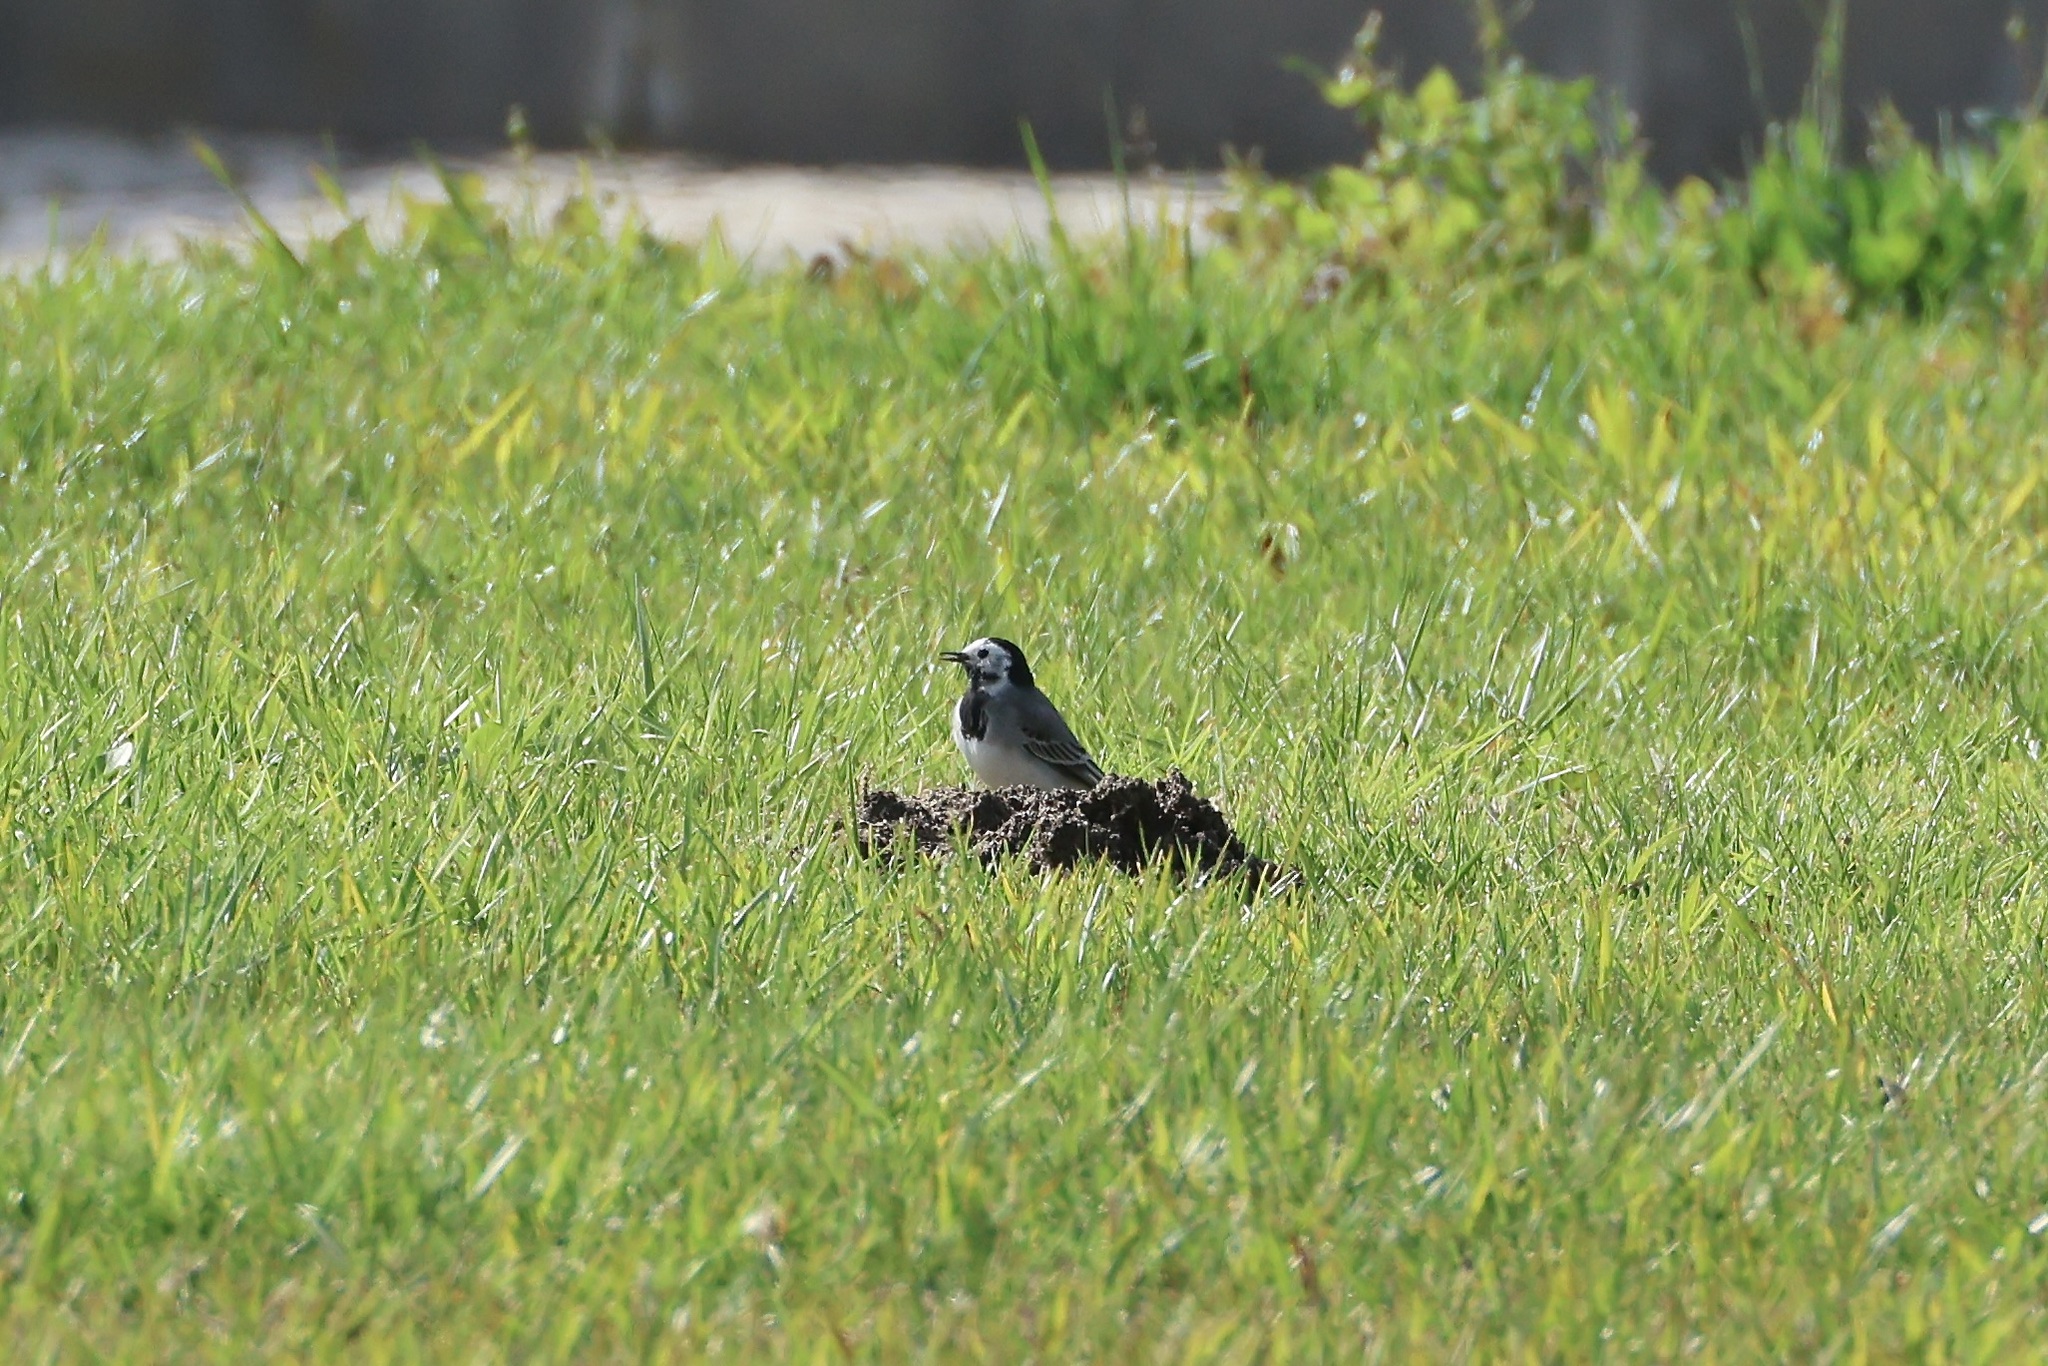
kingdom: Animalia
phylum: Chordata
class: Aves
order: Passeriformes
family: Motacillidae
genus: Motacilla
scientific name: Motacilla alba
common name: White wagtail
